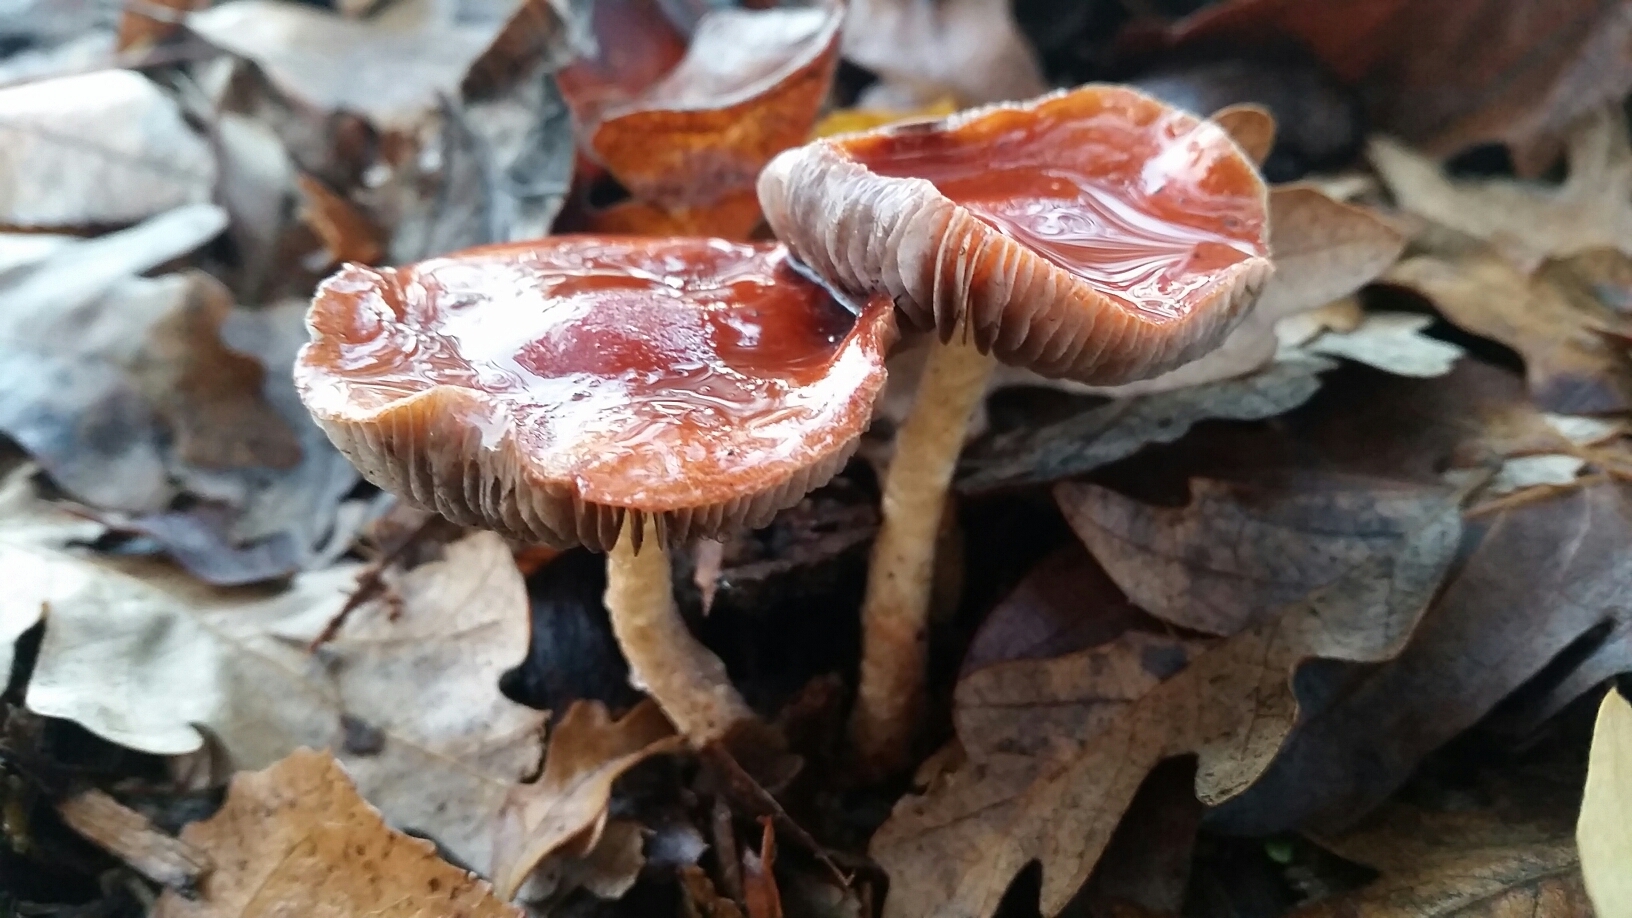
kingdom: Fungi
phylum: Basidiomycota
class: Agaricomycetes
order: Agaricales
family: Strophariaceae
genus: Leratiomyces
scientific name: Leratiomyces ceres
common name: Redlead roundhead
